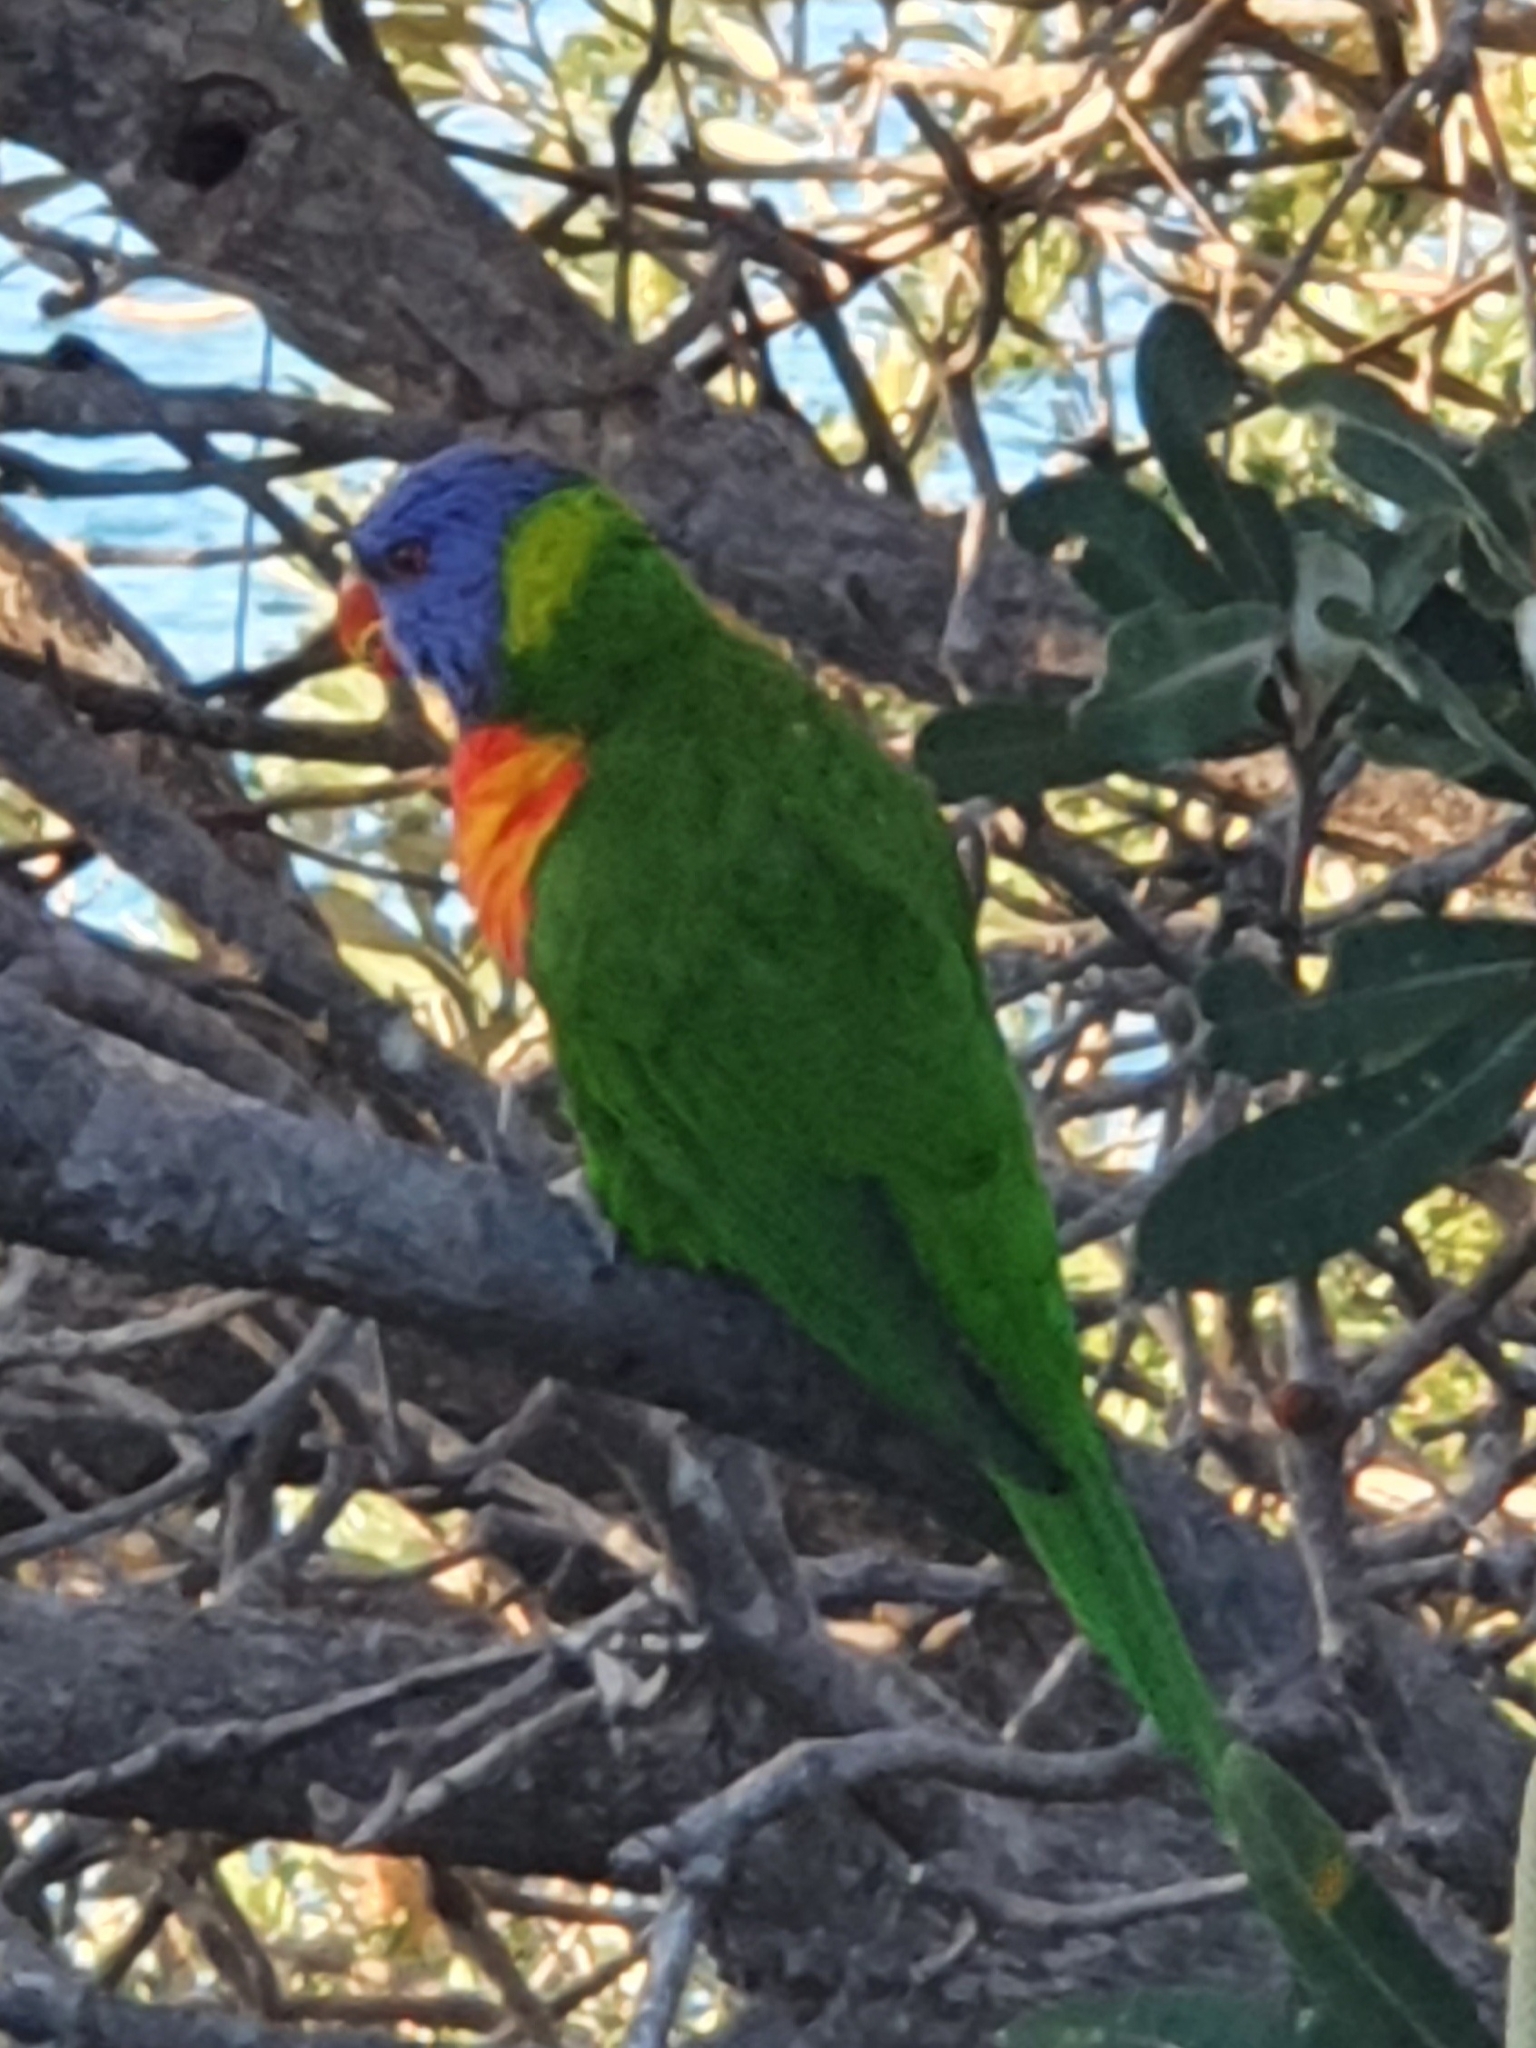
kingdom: Animalia
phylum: Chordata
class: Aves
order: Psittaciformes
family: Psittacidae
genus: Trichoglossus
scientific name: Trichoglossus haematodus
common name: Coconut lorikeet
